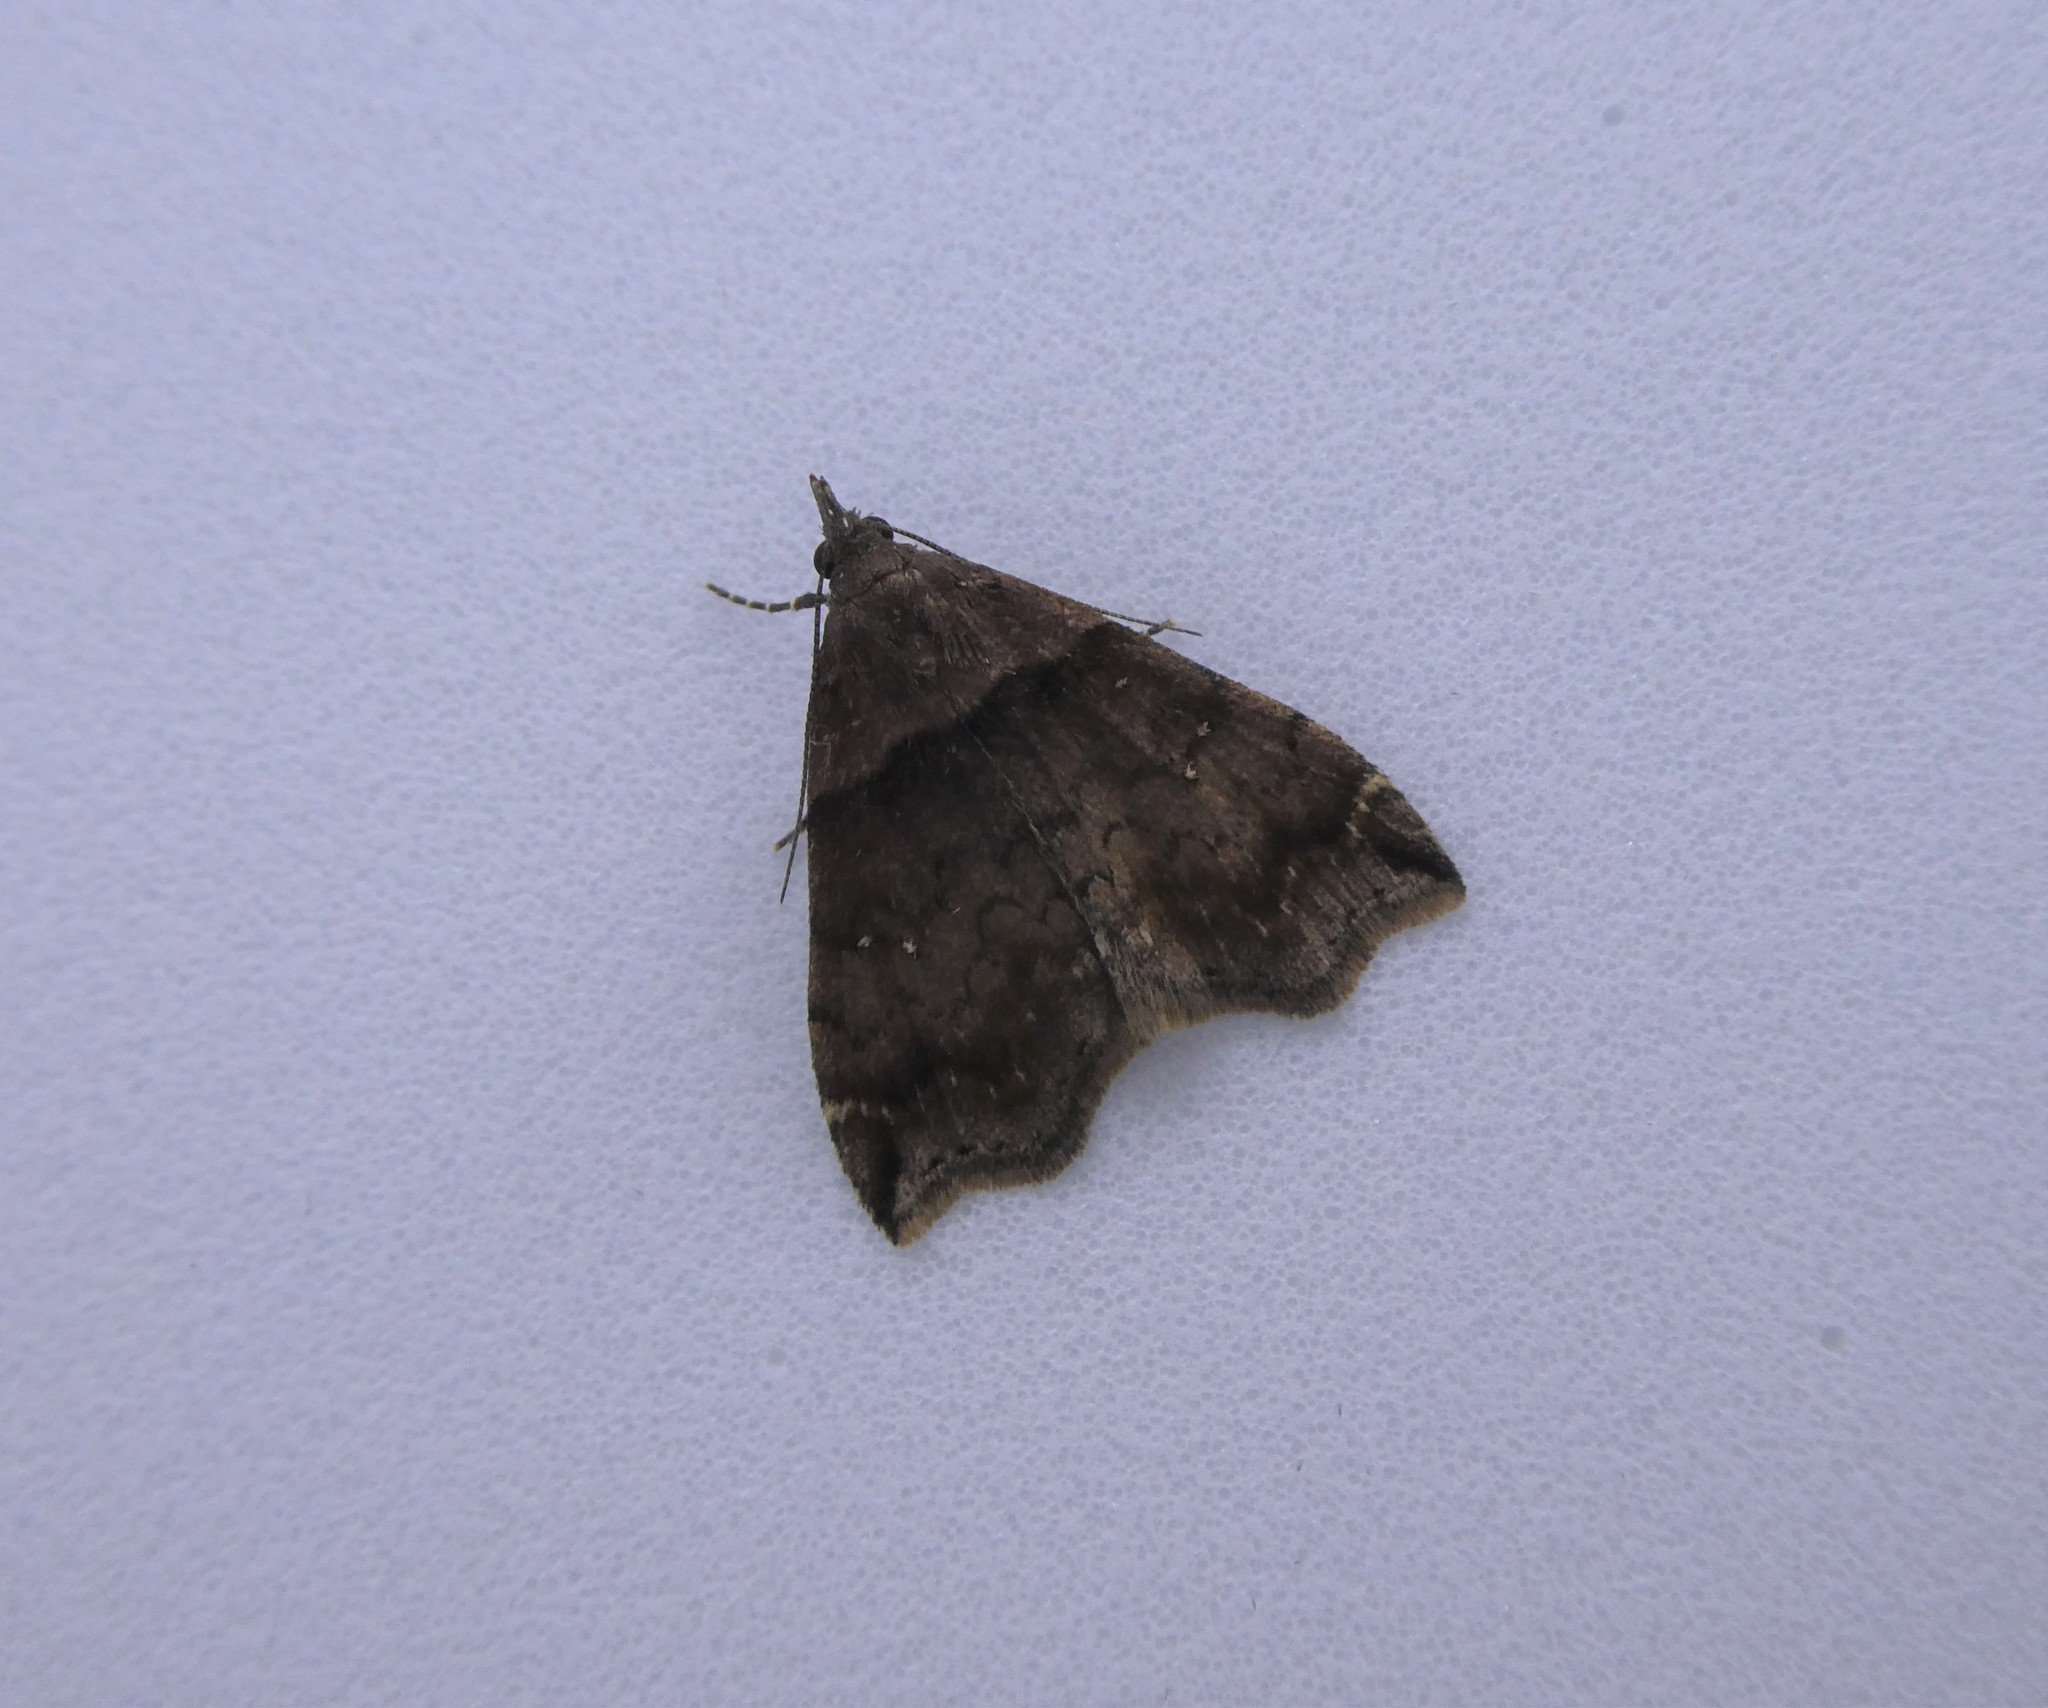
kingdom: Animalia
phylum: Arthropoda
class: Insecta
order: Lepidoptera
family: Erebidae
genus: Lascoria
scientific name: Lascoria ambigualis
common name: Ambiguous moth
